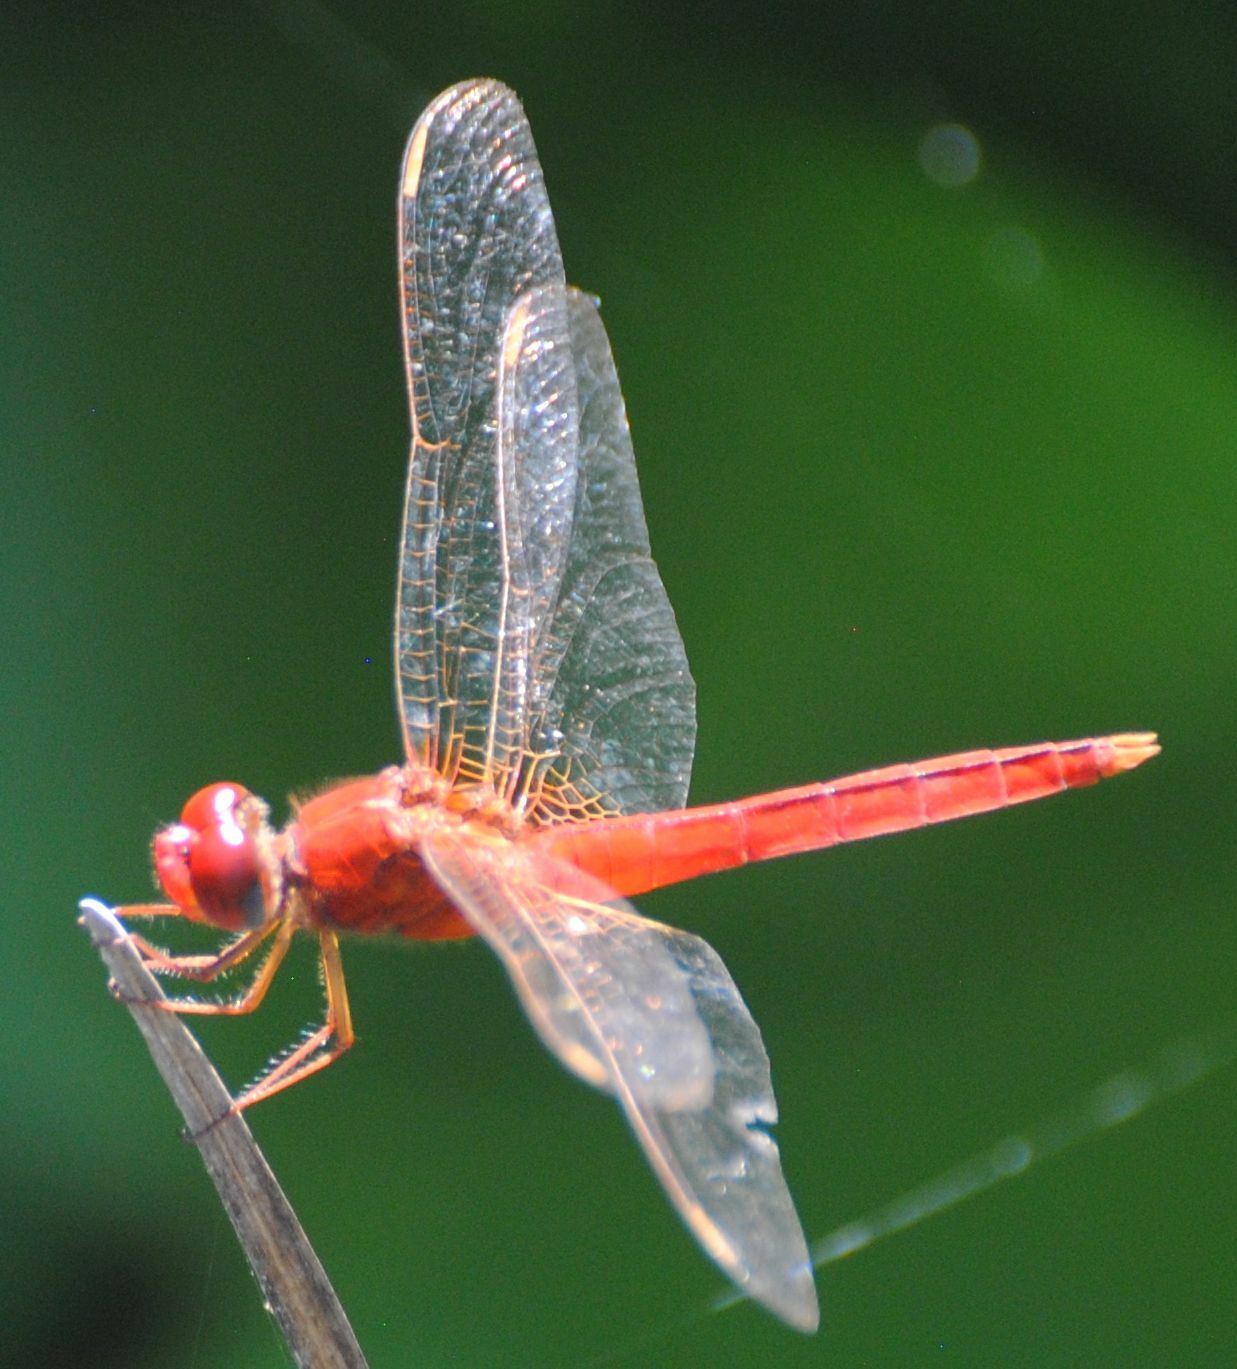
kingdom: Animalia
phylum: Arthropoda
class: Insecta
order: Odonata
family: Libellulidae
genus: Crocothemis
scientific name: Crocothemis servilia
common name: Scarlet skimmer
